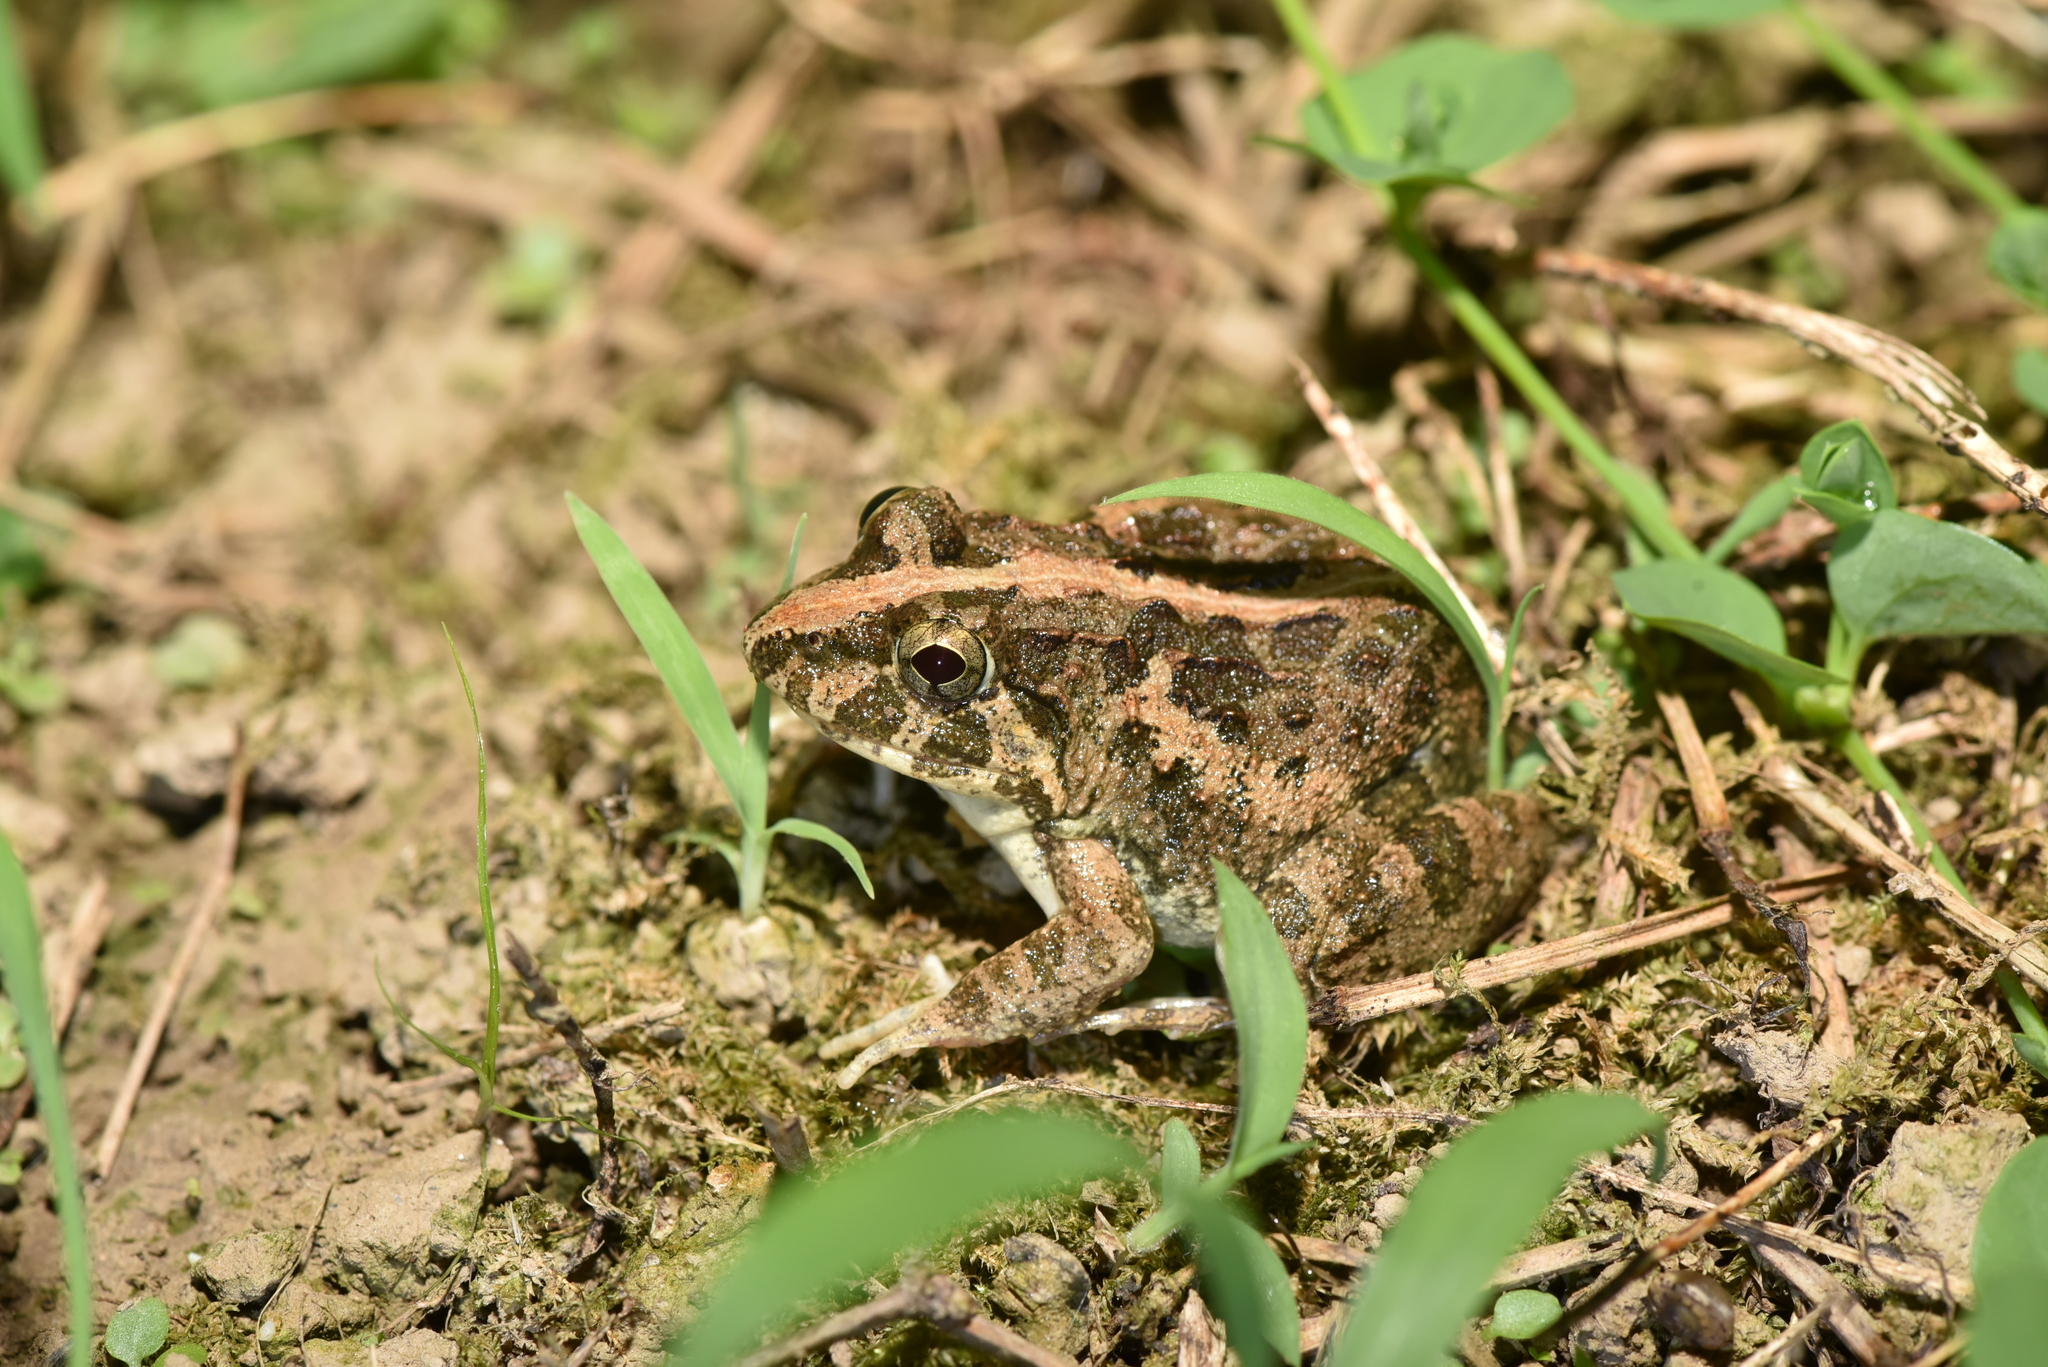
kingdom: Animalia
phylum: Chordata
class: Amphibia
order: Anura
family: Dicroglossidae
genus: Fejervarya
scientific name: Fejervarya limnocharis
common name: Asian grass frog/common pond frog/field frog/grass frog/indian rice frog
